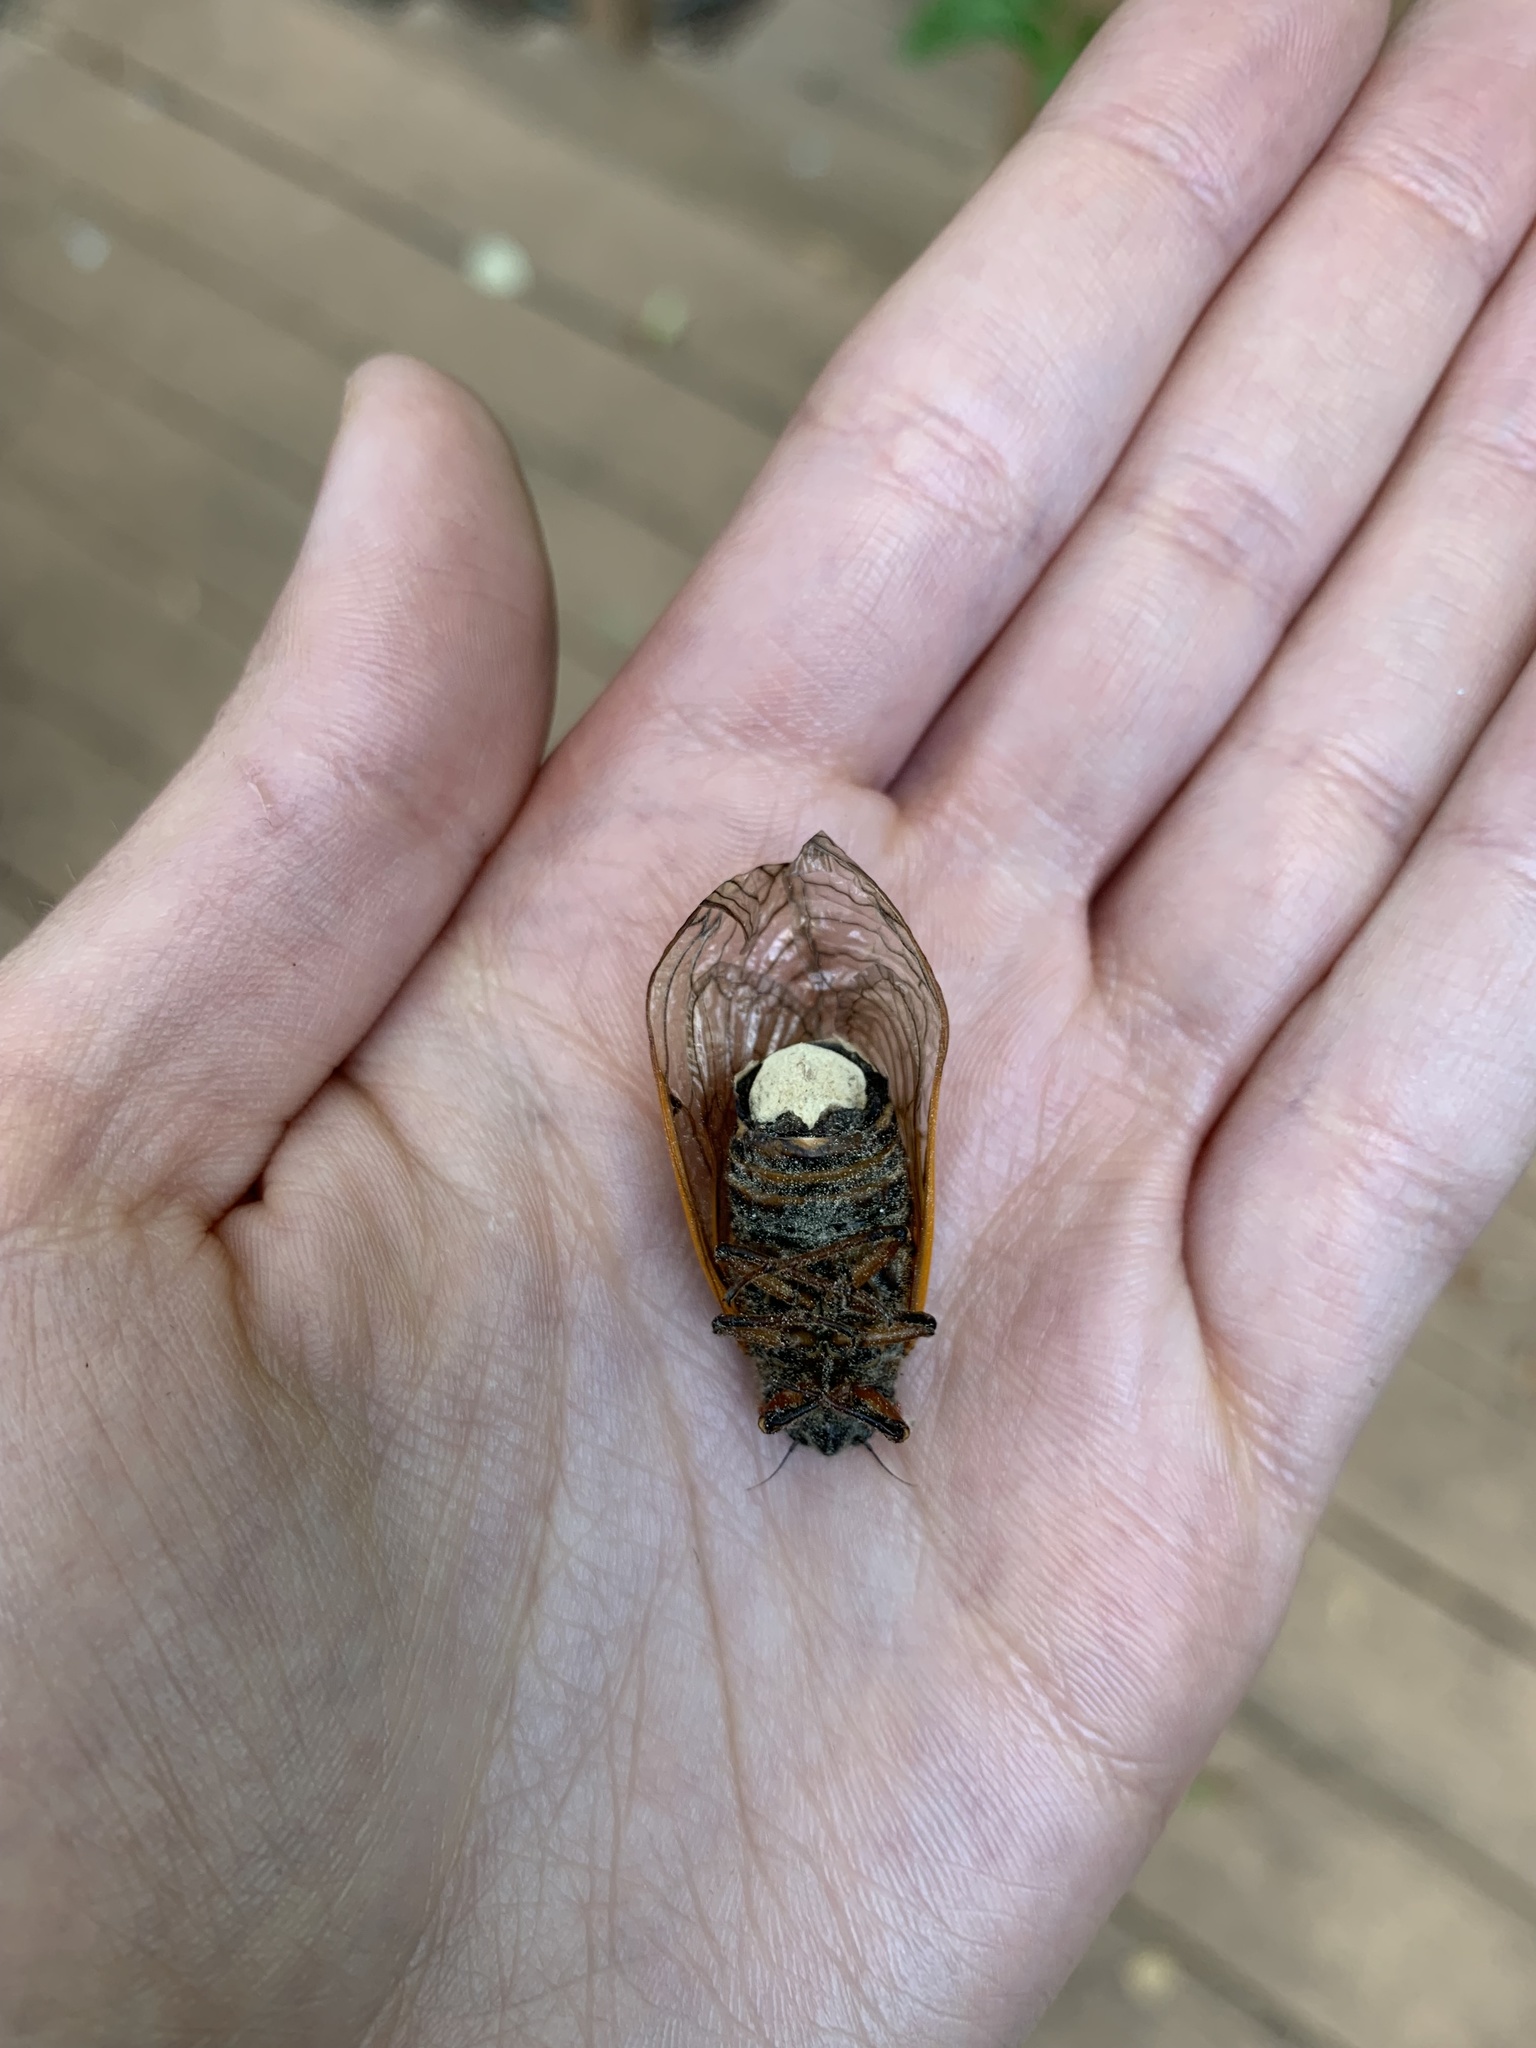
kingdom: Fungi
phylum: Entomophthoromycota
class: Entomophthoromycetes
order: Entomophthorales
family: Entomophthoraceae
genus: Massospora
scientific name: Massospora cicadina
